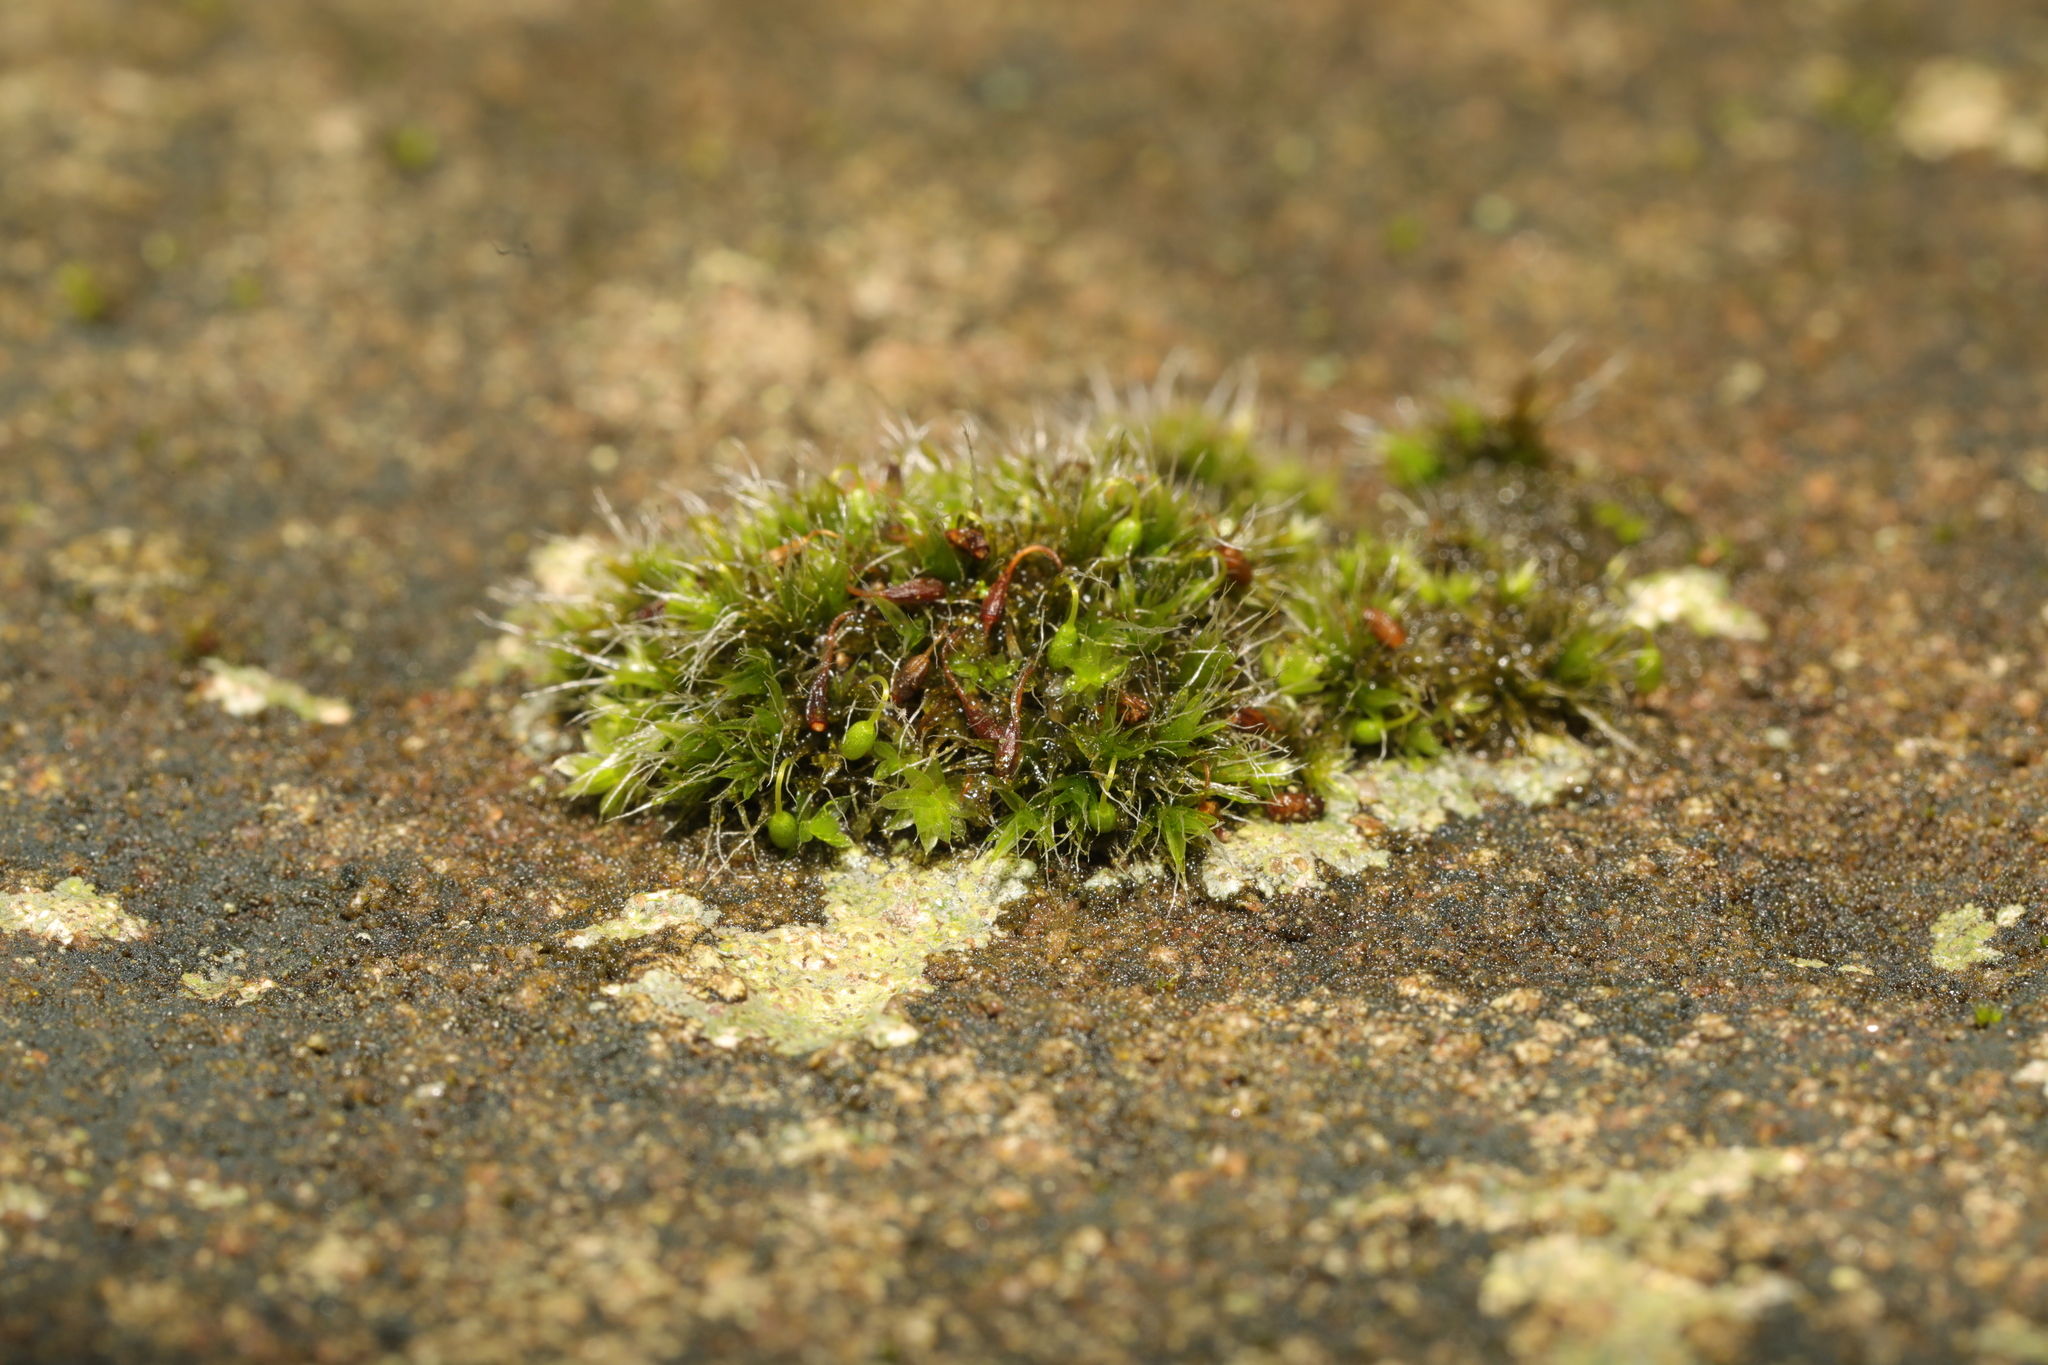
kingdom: Plantae
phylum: Bryophyta
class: Bryopsida
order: Grimmiales
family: Grimmiaceae
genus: Grimmia
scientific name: Grimmia pulvinata
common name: Grey-cushioned grimmia
